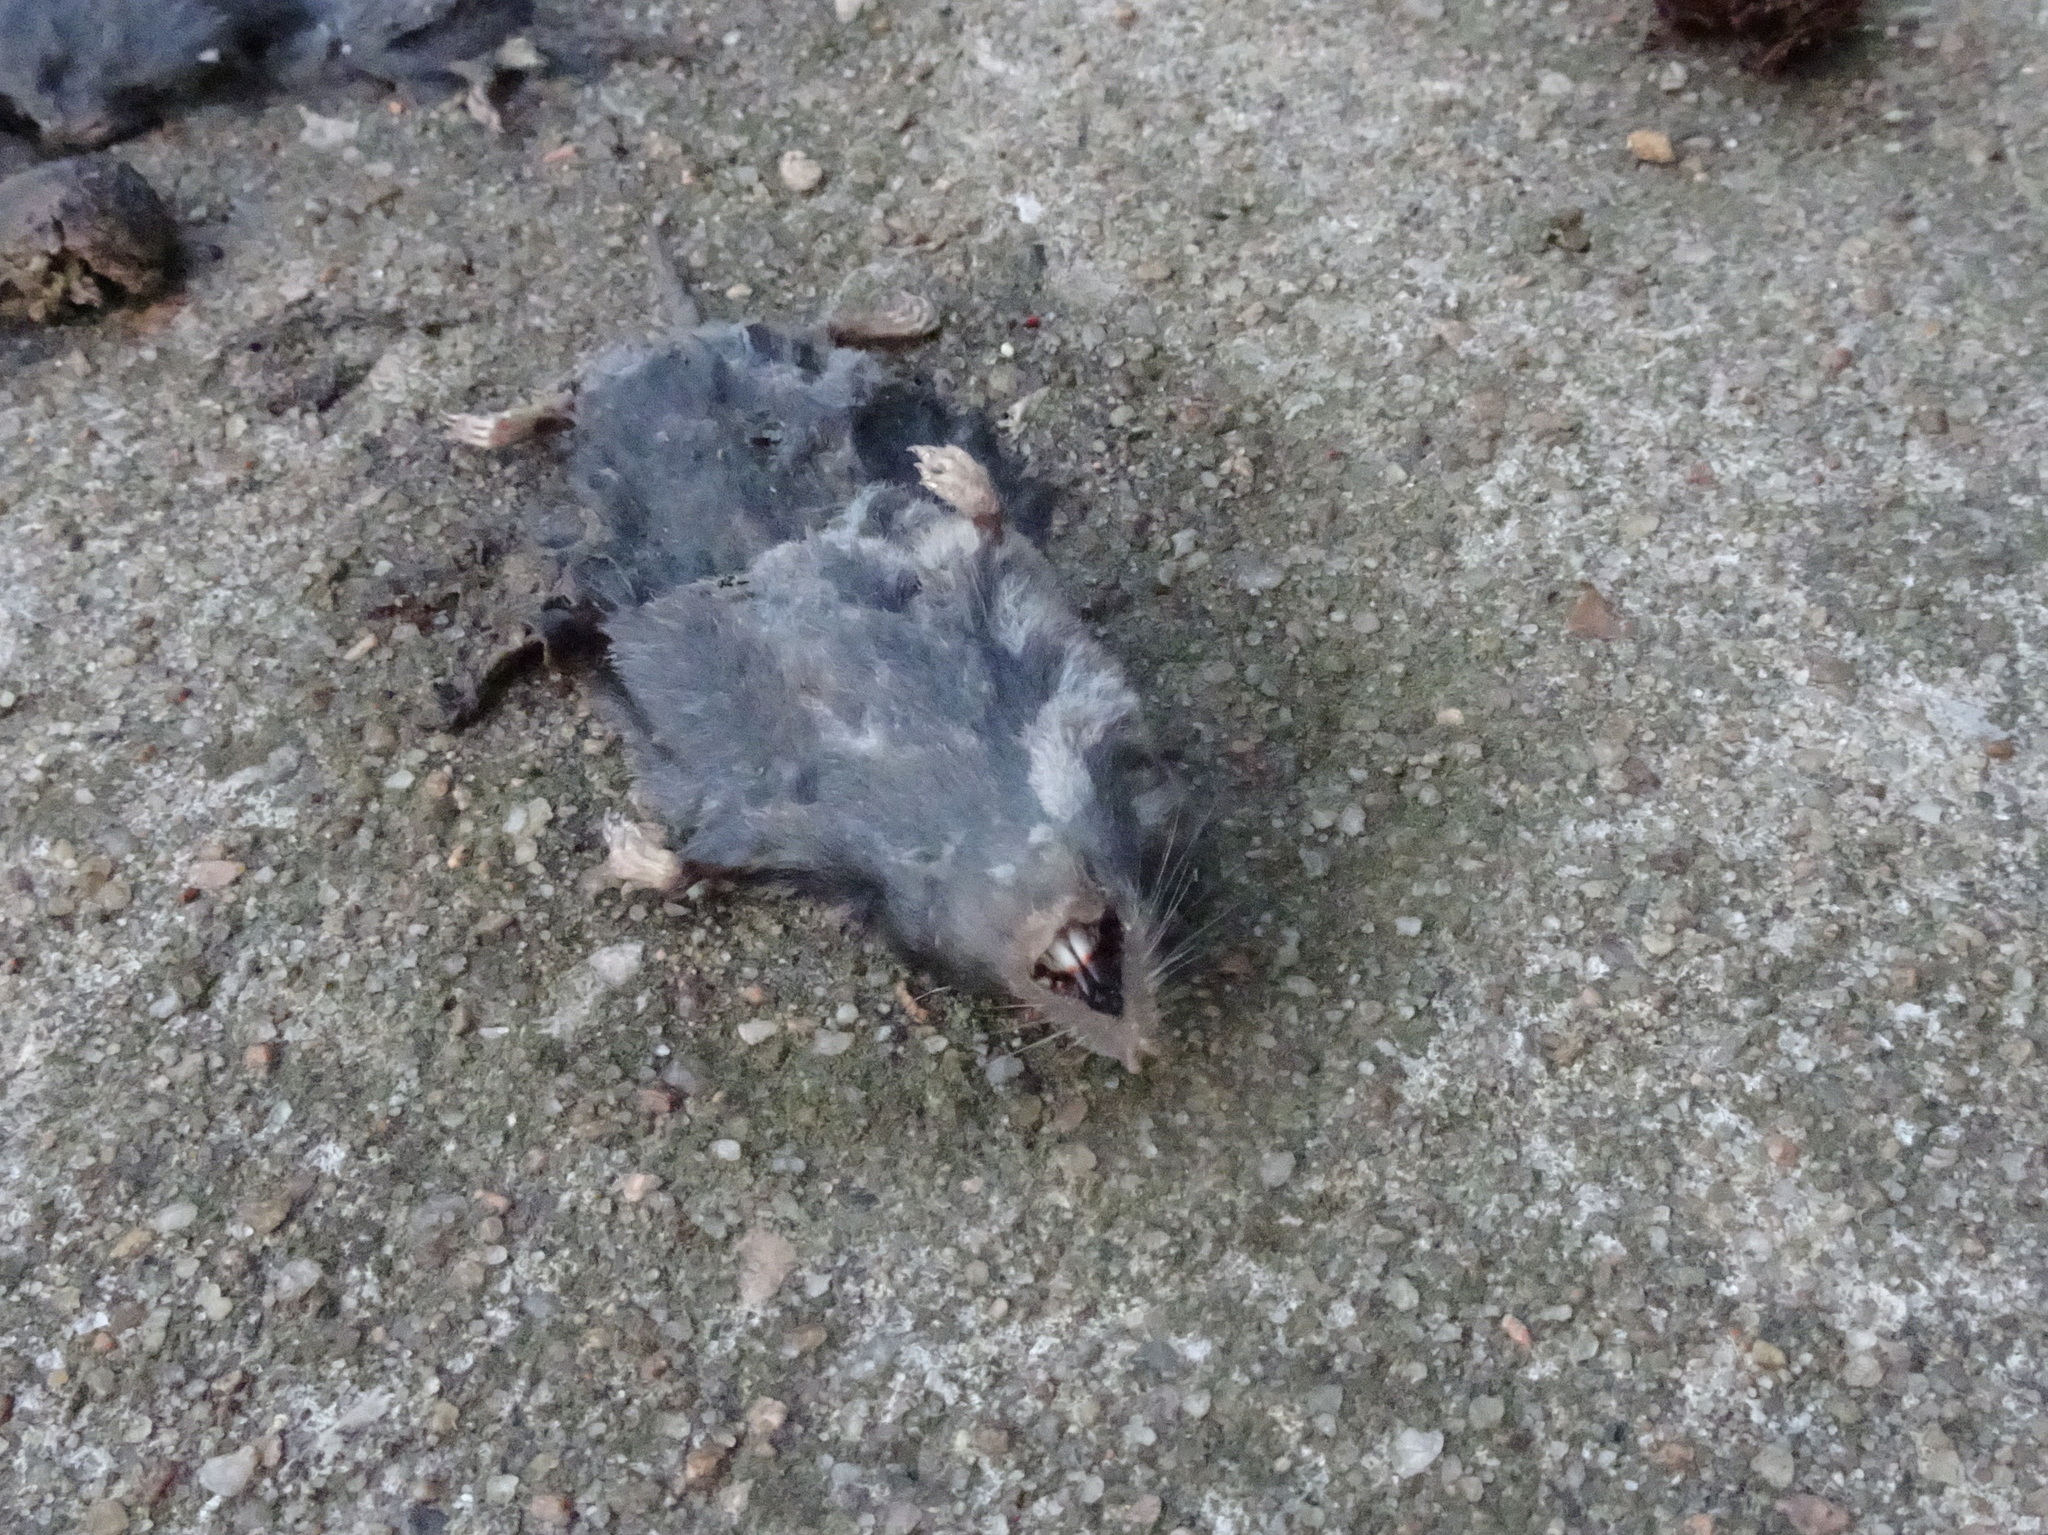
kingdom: Animalia
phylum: Chordata
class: Mammalia
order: Soricomorpha
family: Soricidae
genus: Blarina
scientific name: Blarina brevicauda
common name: Northern short-tailed shrew
